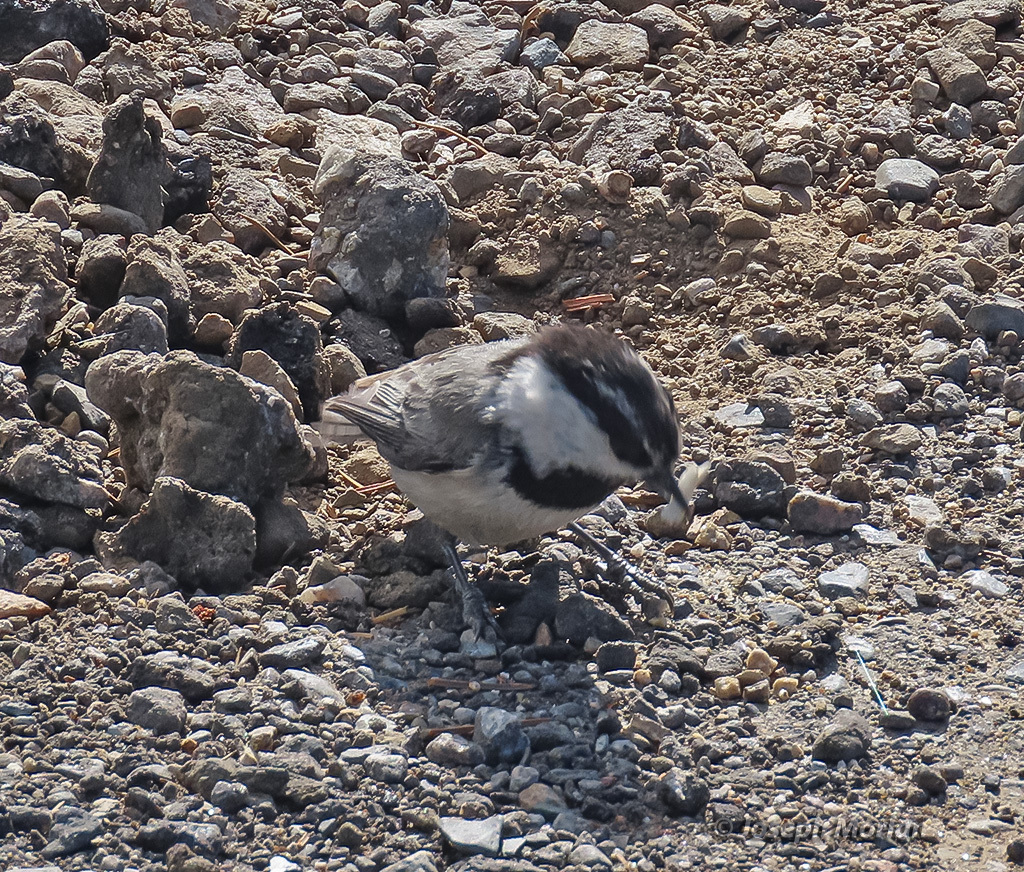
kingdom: Animalia
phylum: Chordata
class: Aves
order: Passeriformes
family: Paridae
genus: Poecile
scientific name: Poecile gambeli
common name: Mountain chickadee
